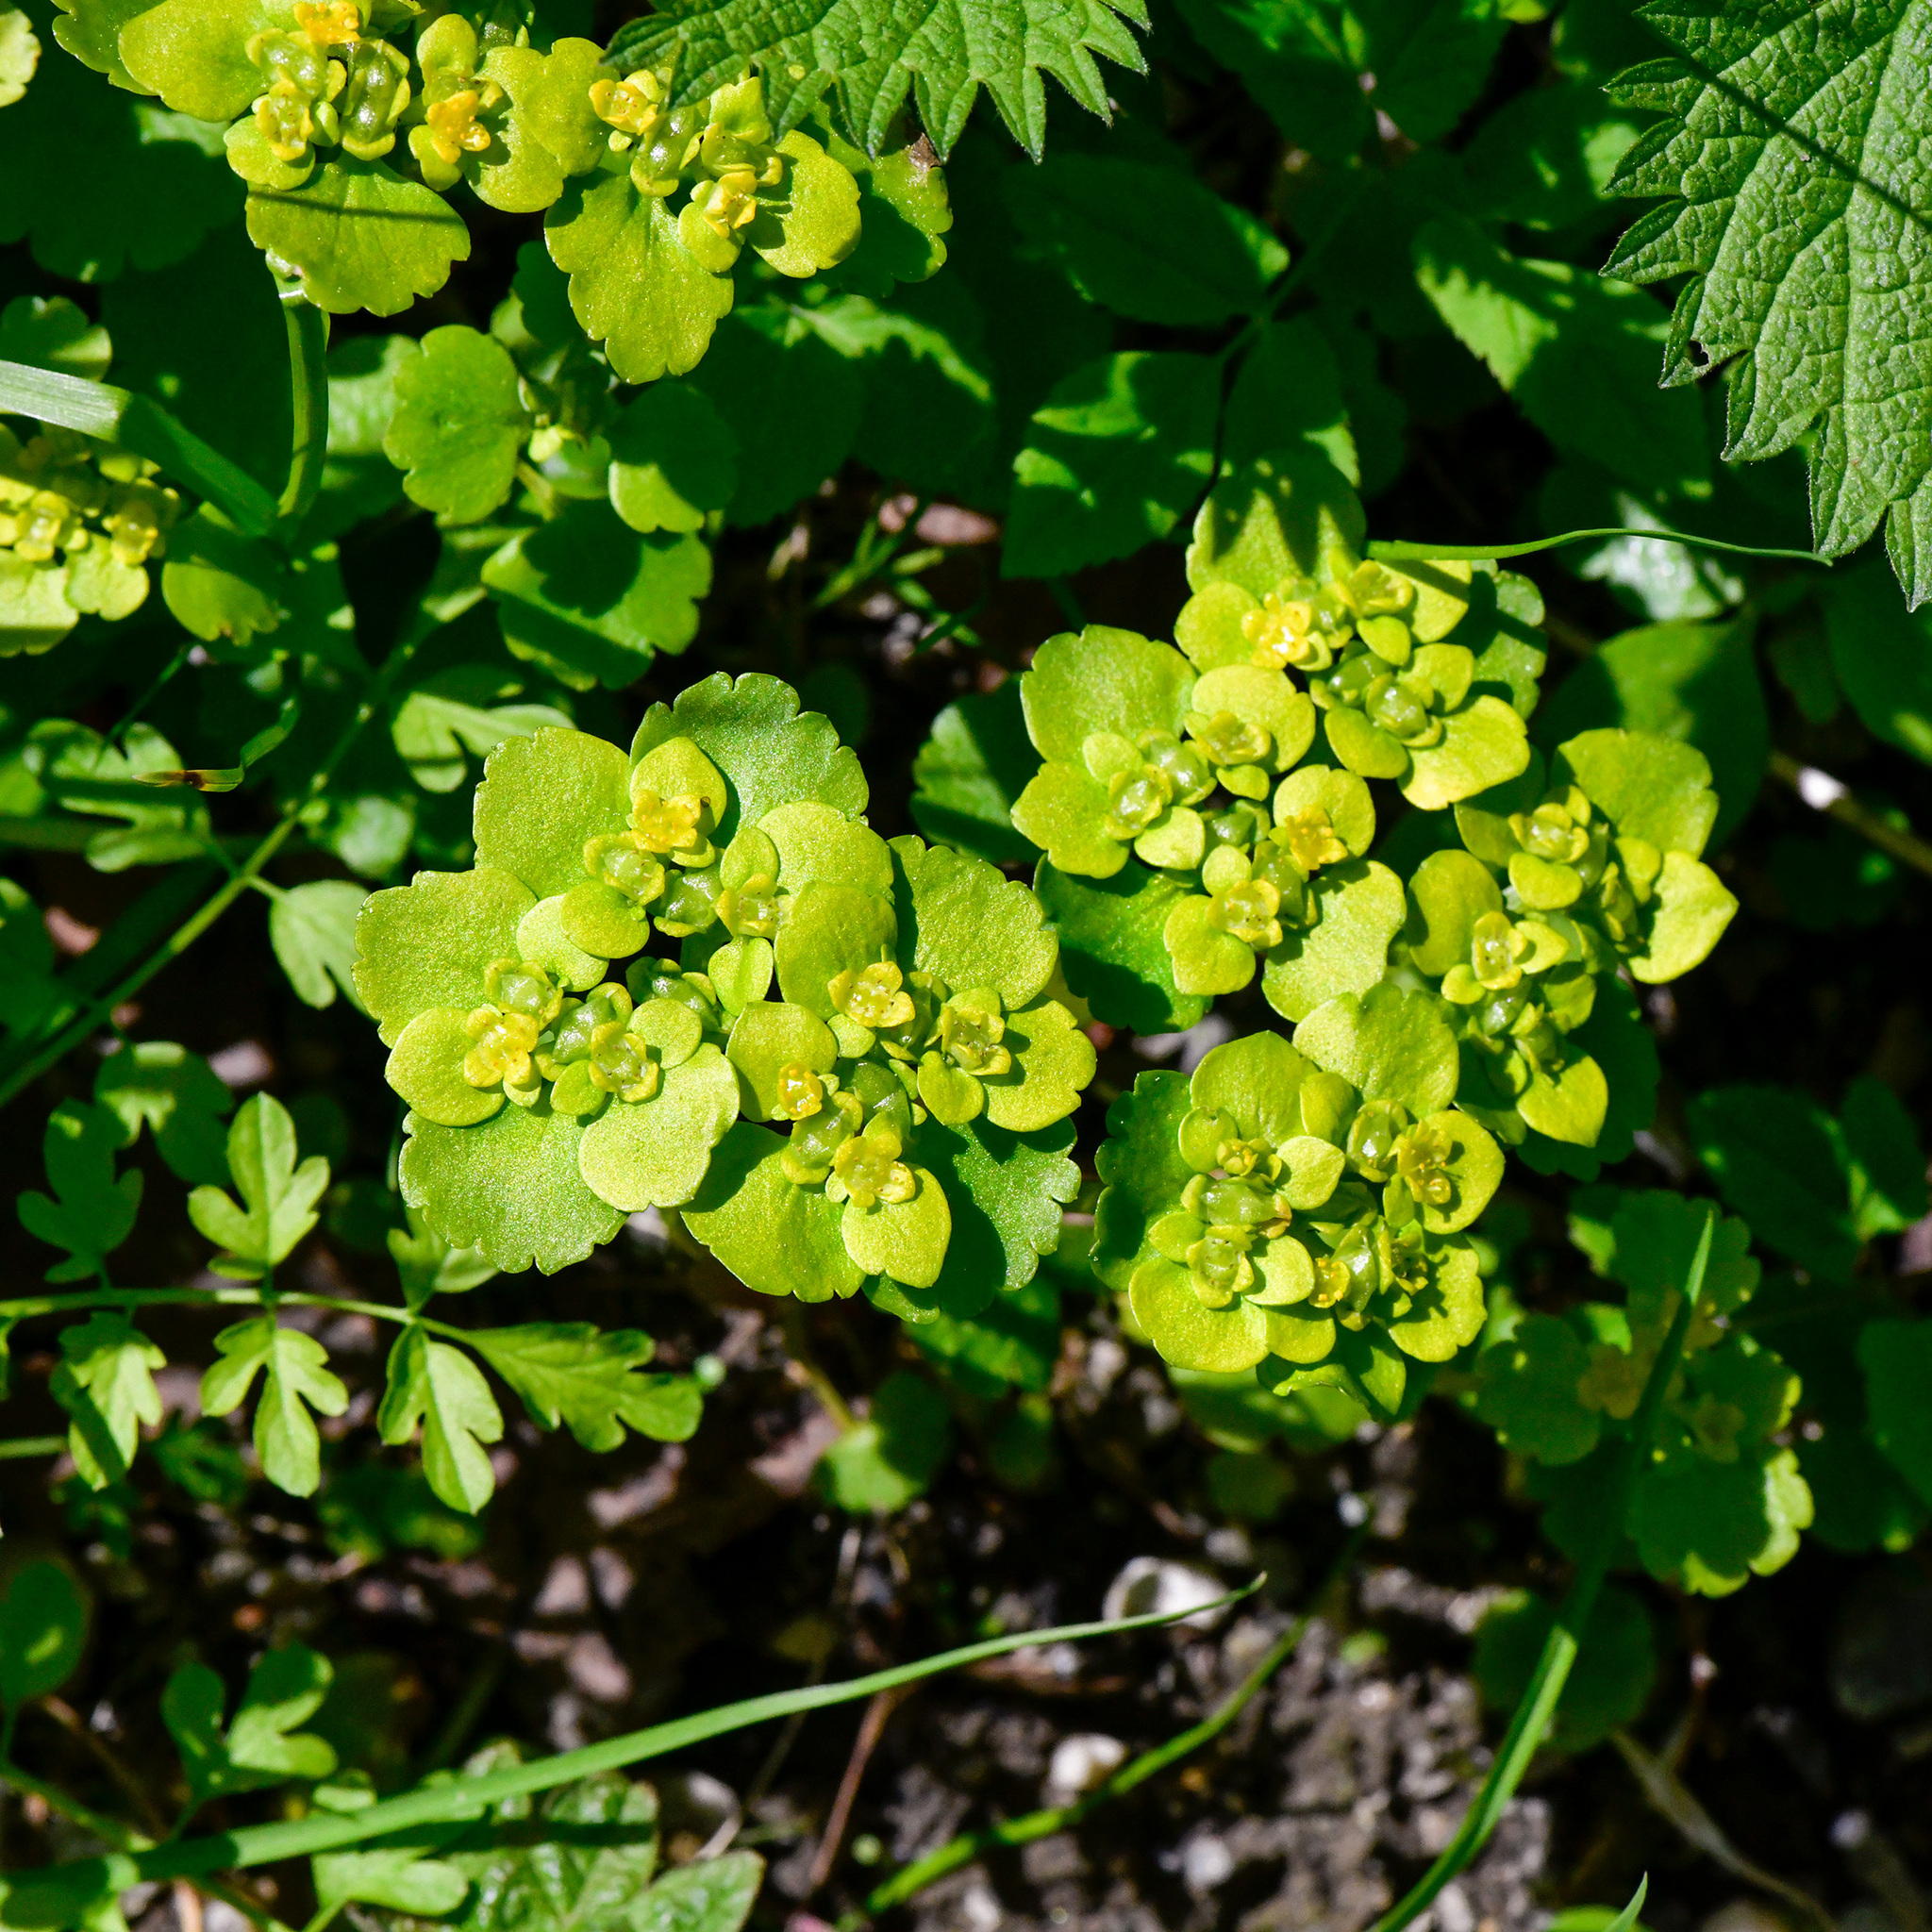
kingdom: Plantae
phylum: Tracheophyta
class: Magnoliopsida
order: Saxifragales
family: Saxifragaceae
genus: Chrysosplenium
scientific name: Chrysosplenium alternifolium
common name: Alternate-leaved golden-saxifrage
